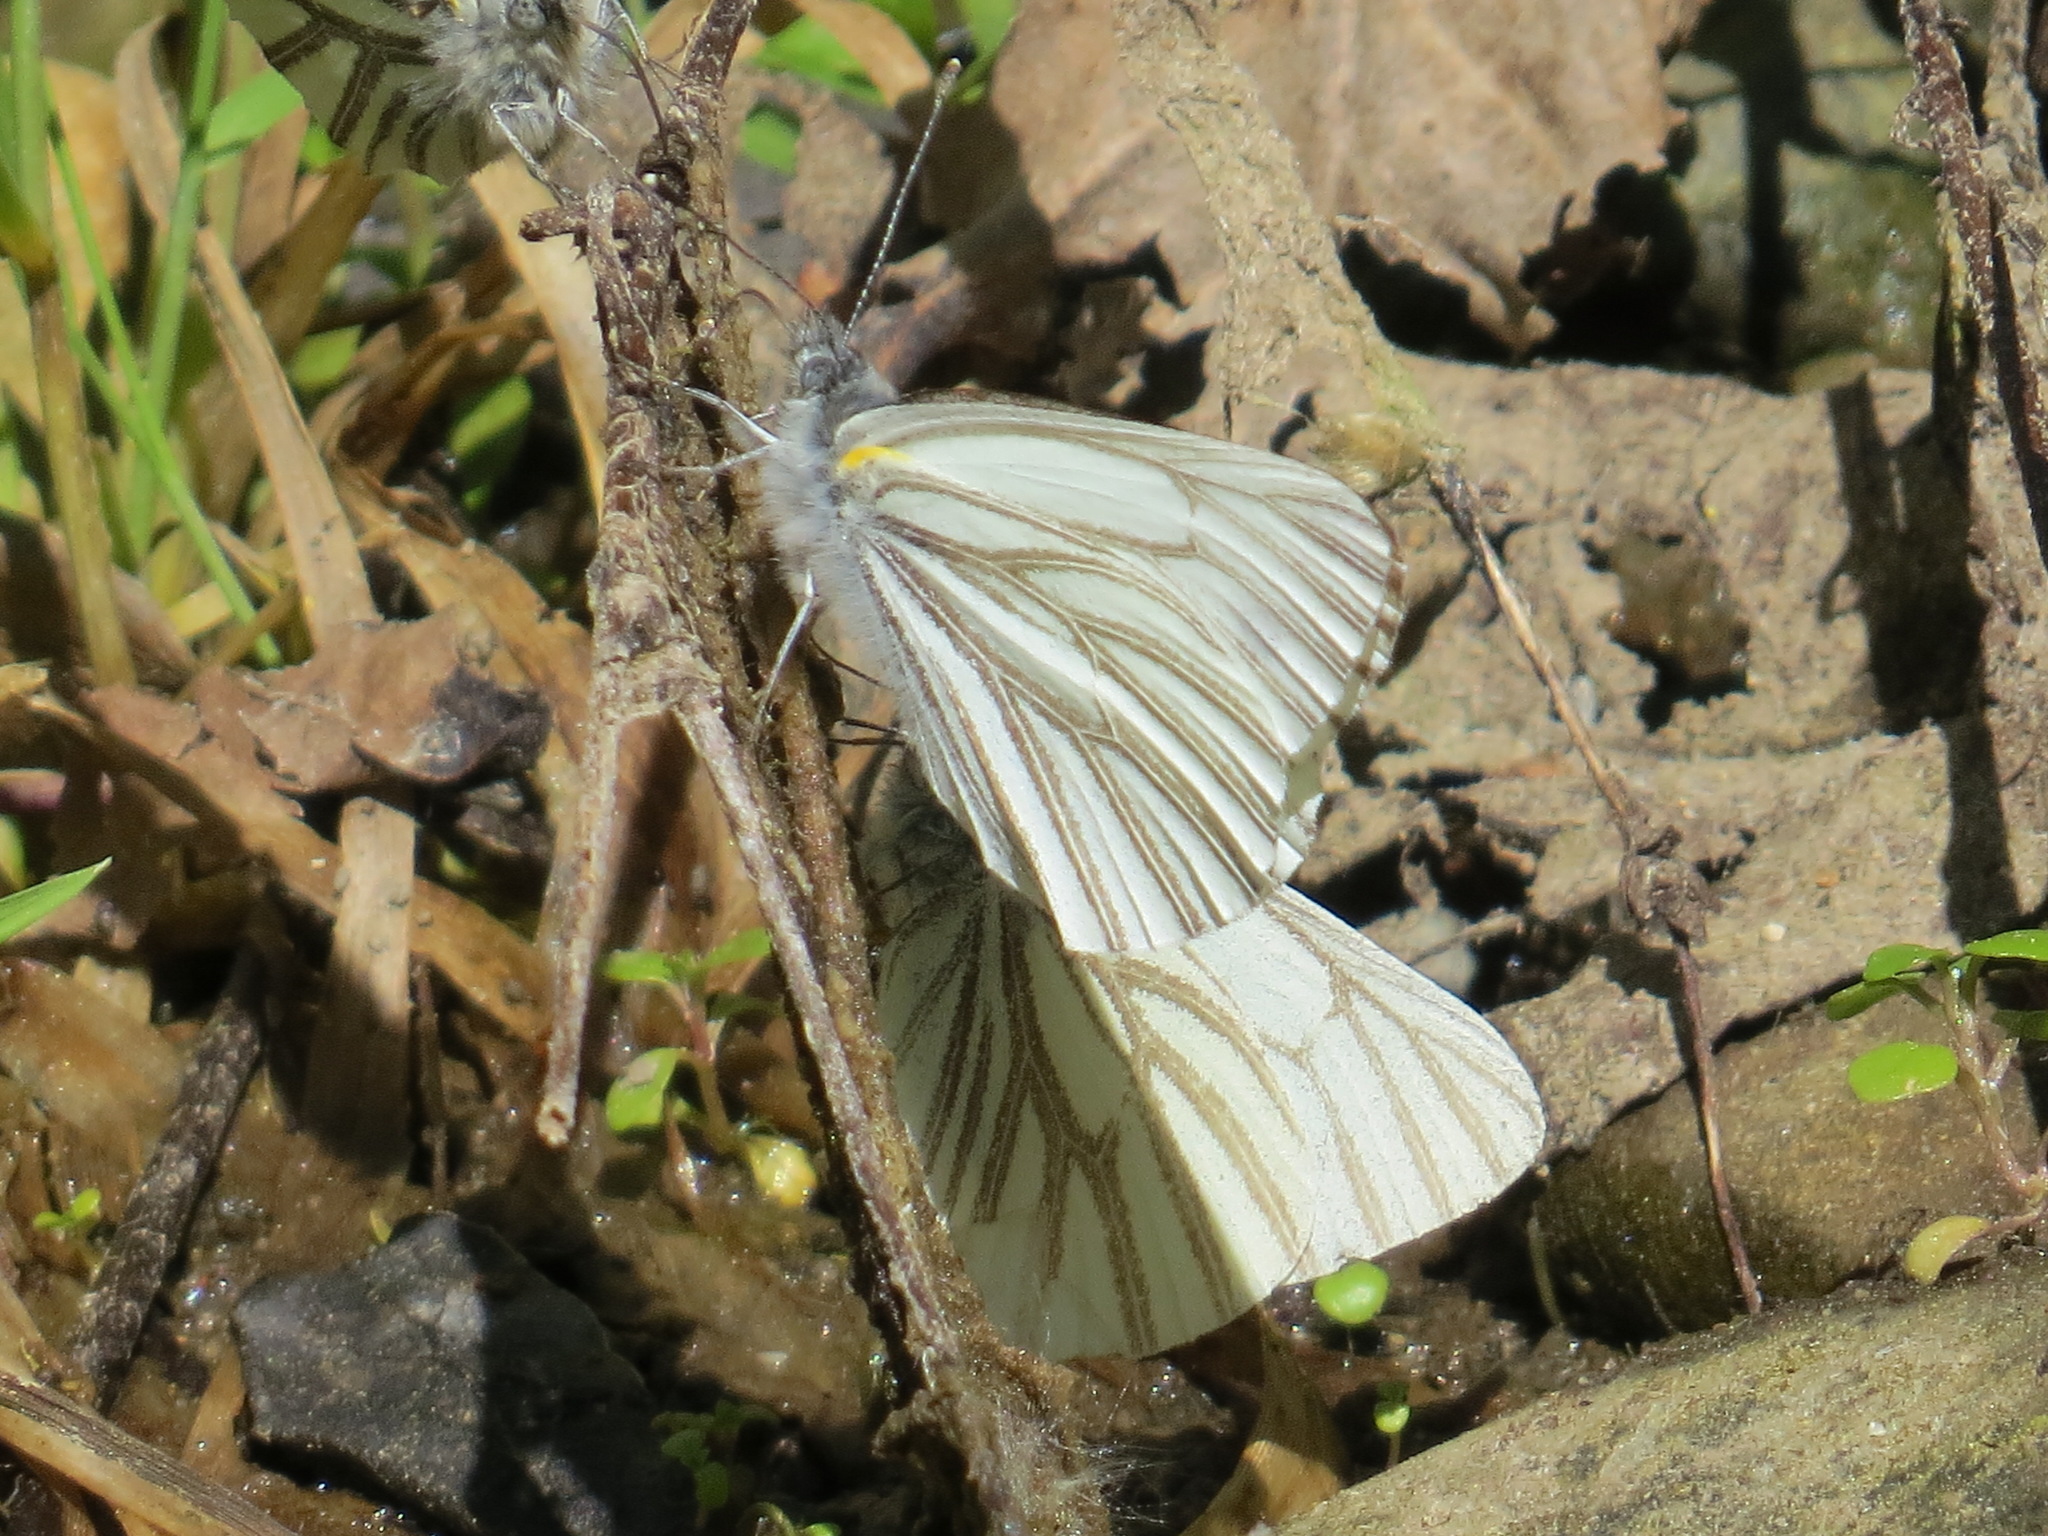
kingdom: Animalia
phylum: Arthropoda
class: Insecta
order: Lepidoptera
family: Pieridae
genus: Pieris
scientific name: Pieris marginalis
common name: Margined white
